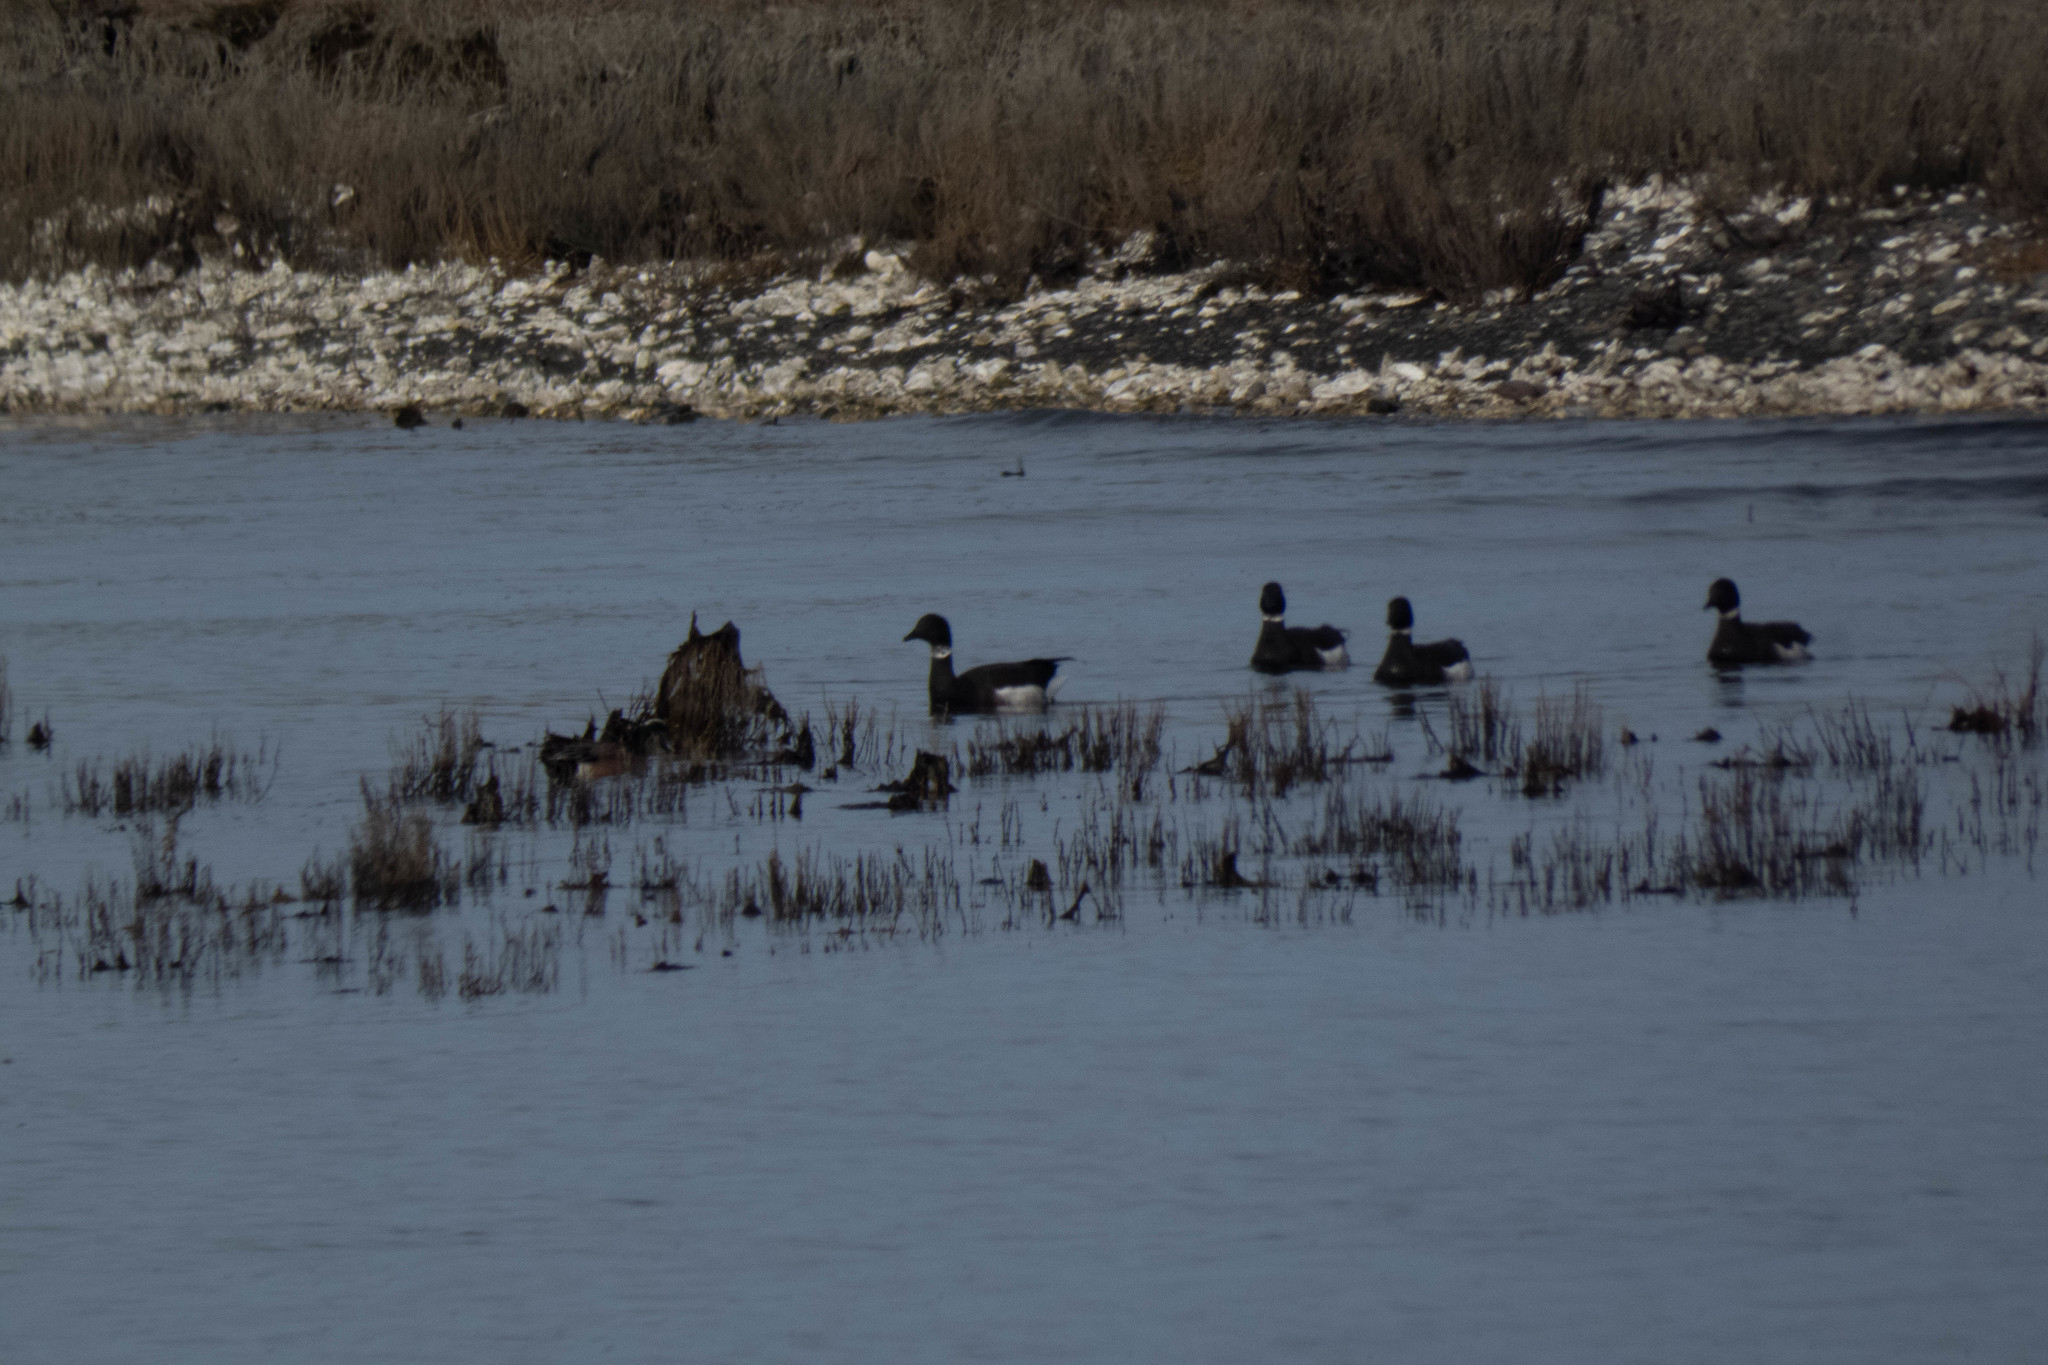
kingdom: Animalia
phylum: Chordata
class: Aves
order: Anseriformes
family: Anatidae
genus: Branta
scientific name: Branta bernicla
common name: Brant goose
